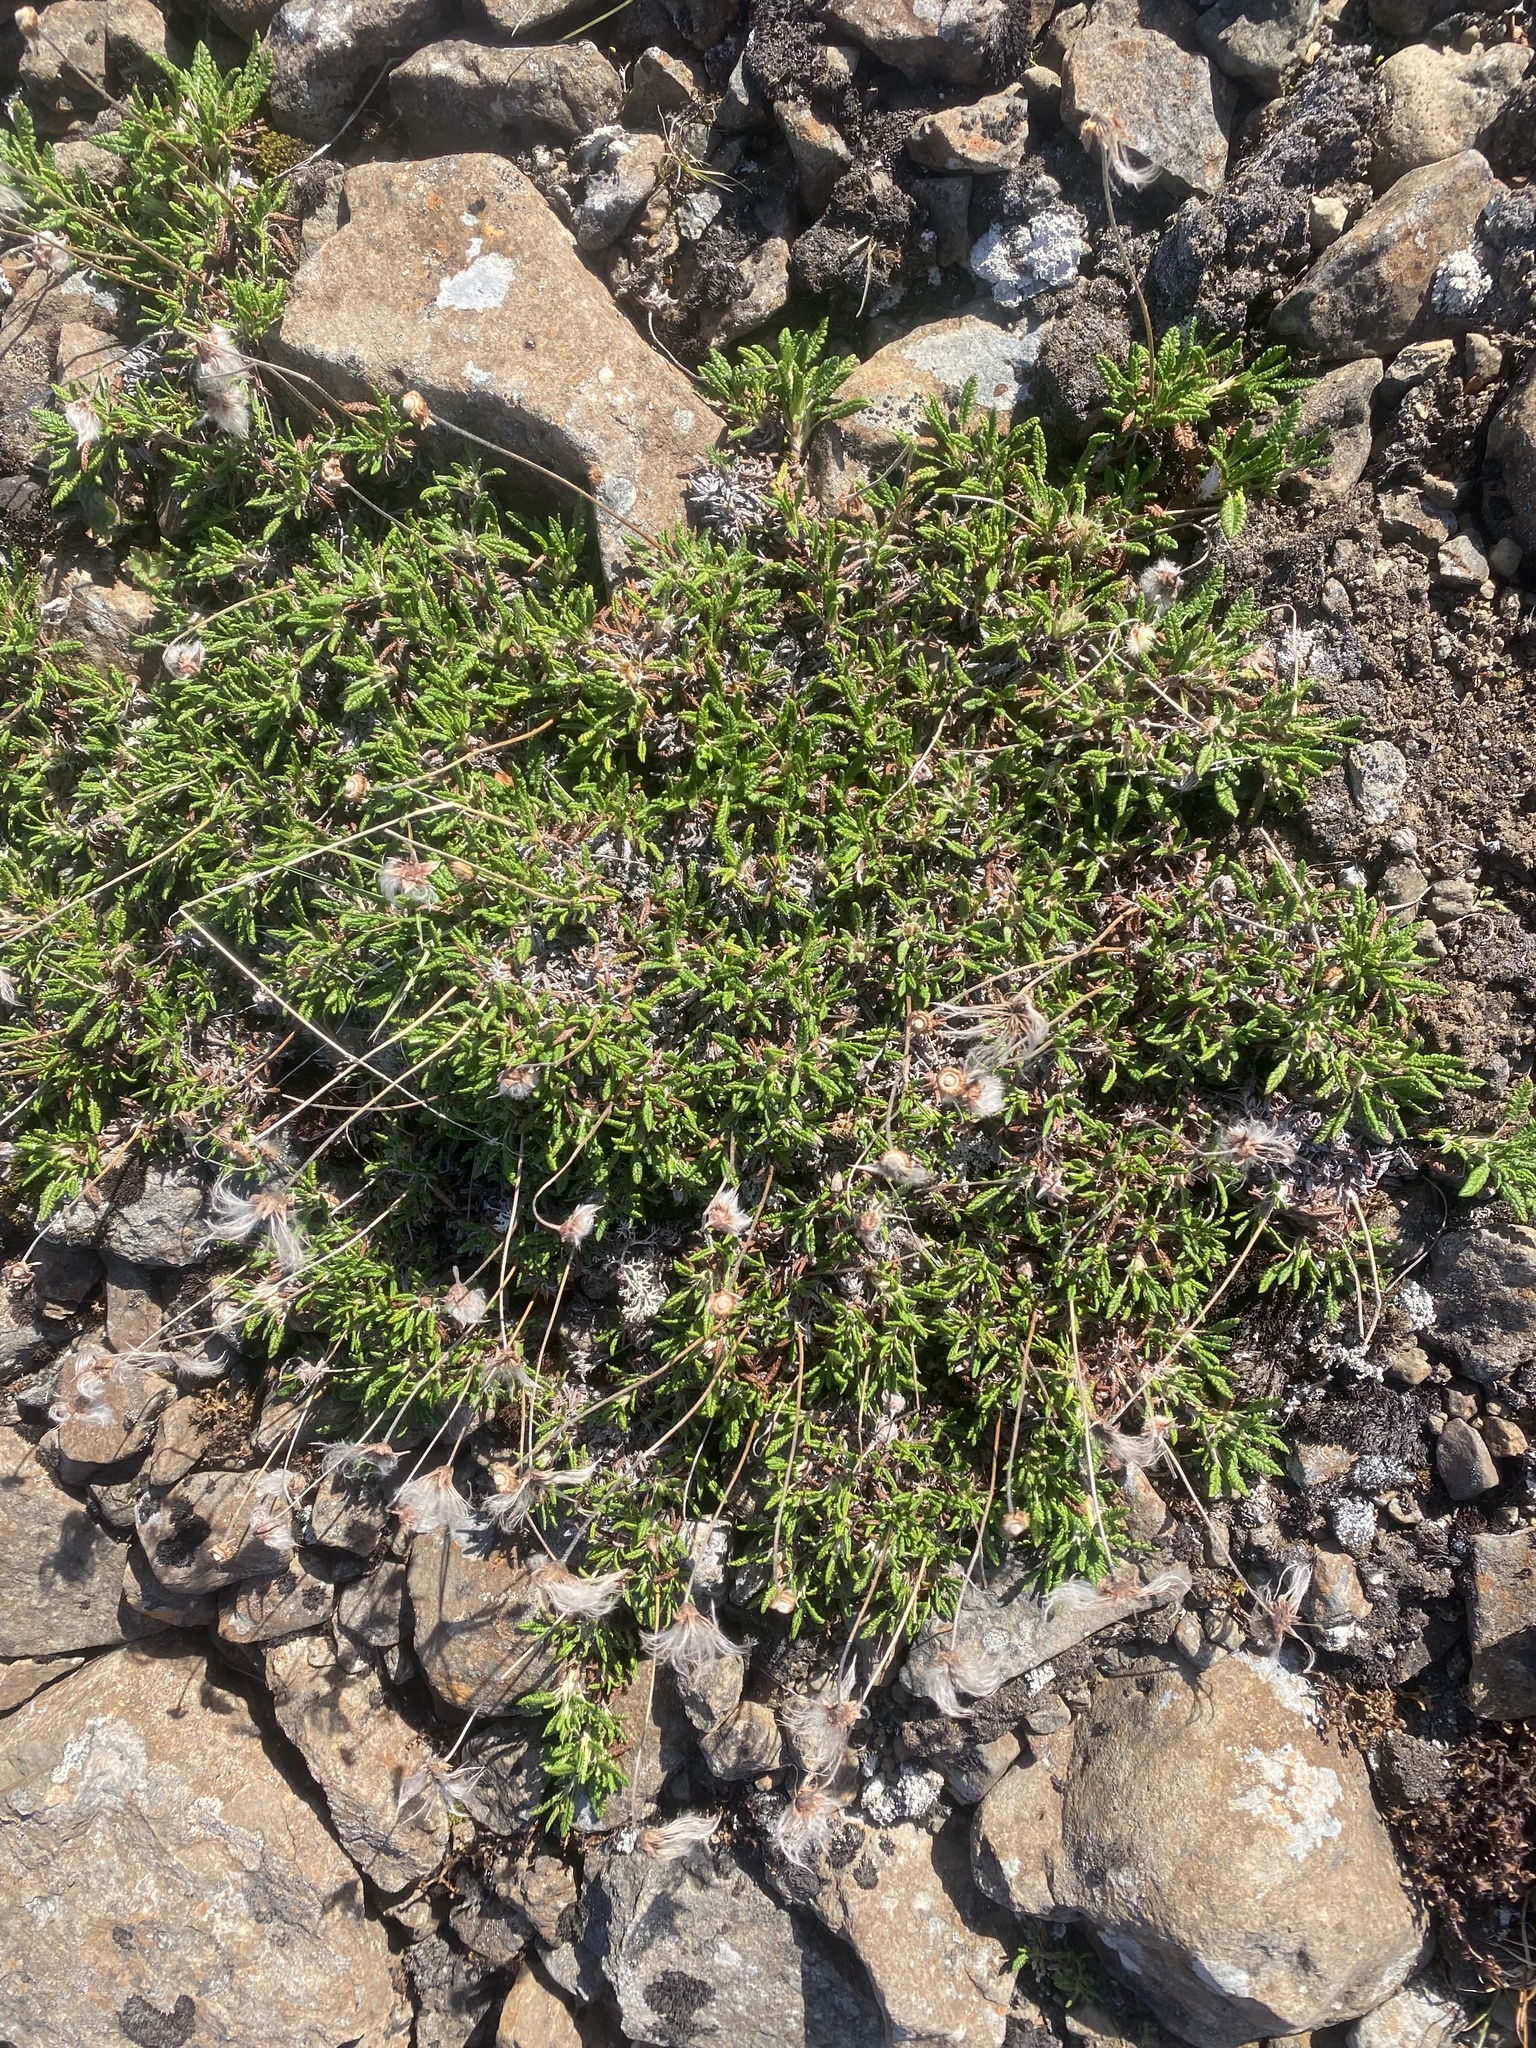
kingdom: Plantae
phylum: Tracheophyta
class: Magnoliopsida
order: Rosales
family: Rosaceae
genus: Dryas
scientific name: Dryas octopetala
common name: Eight-petal mountain-avens
